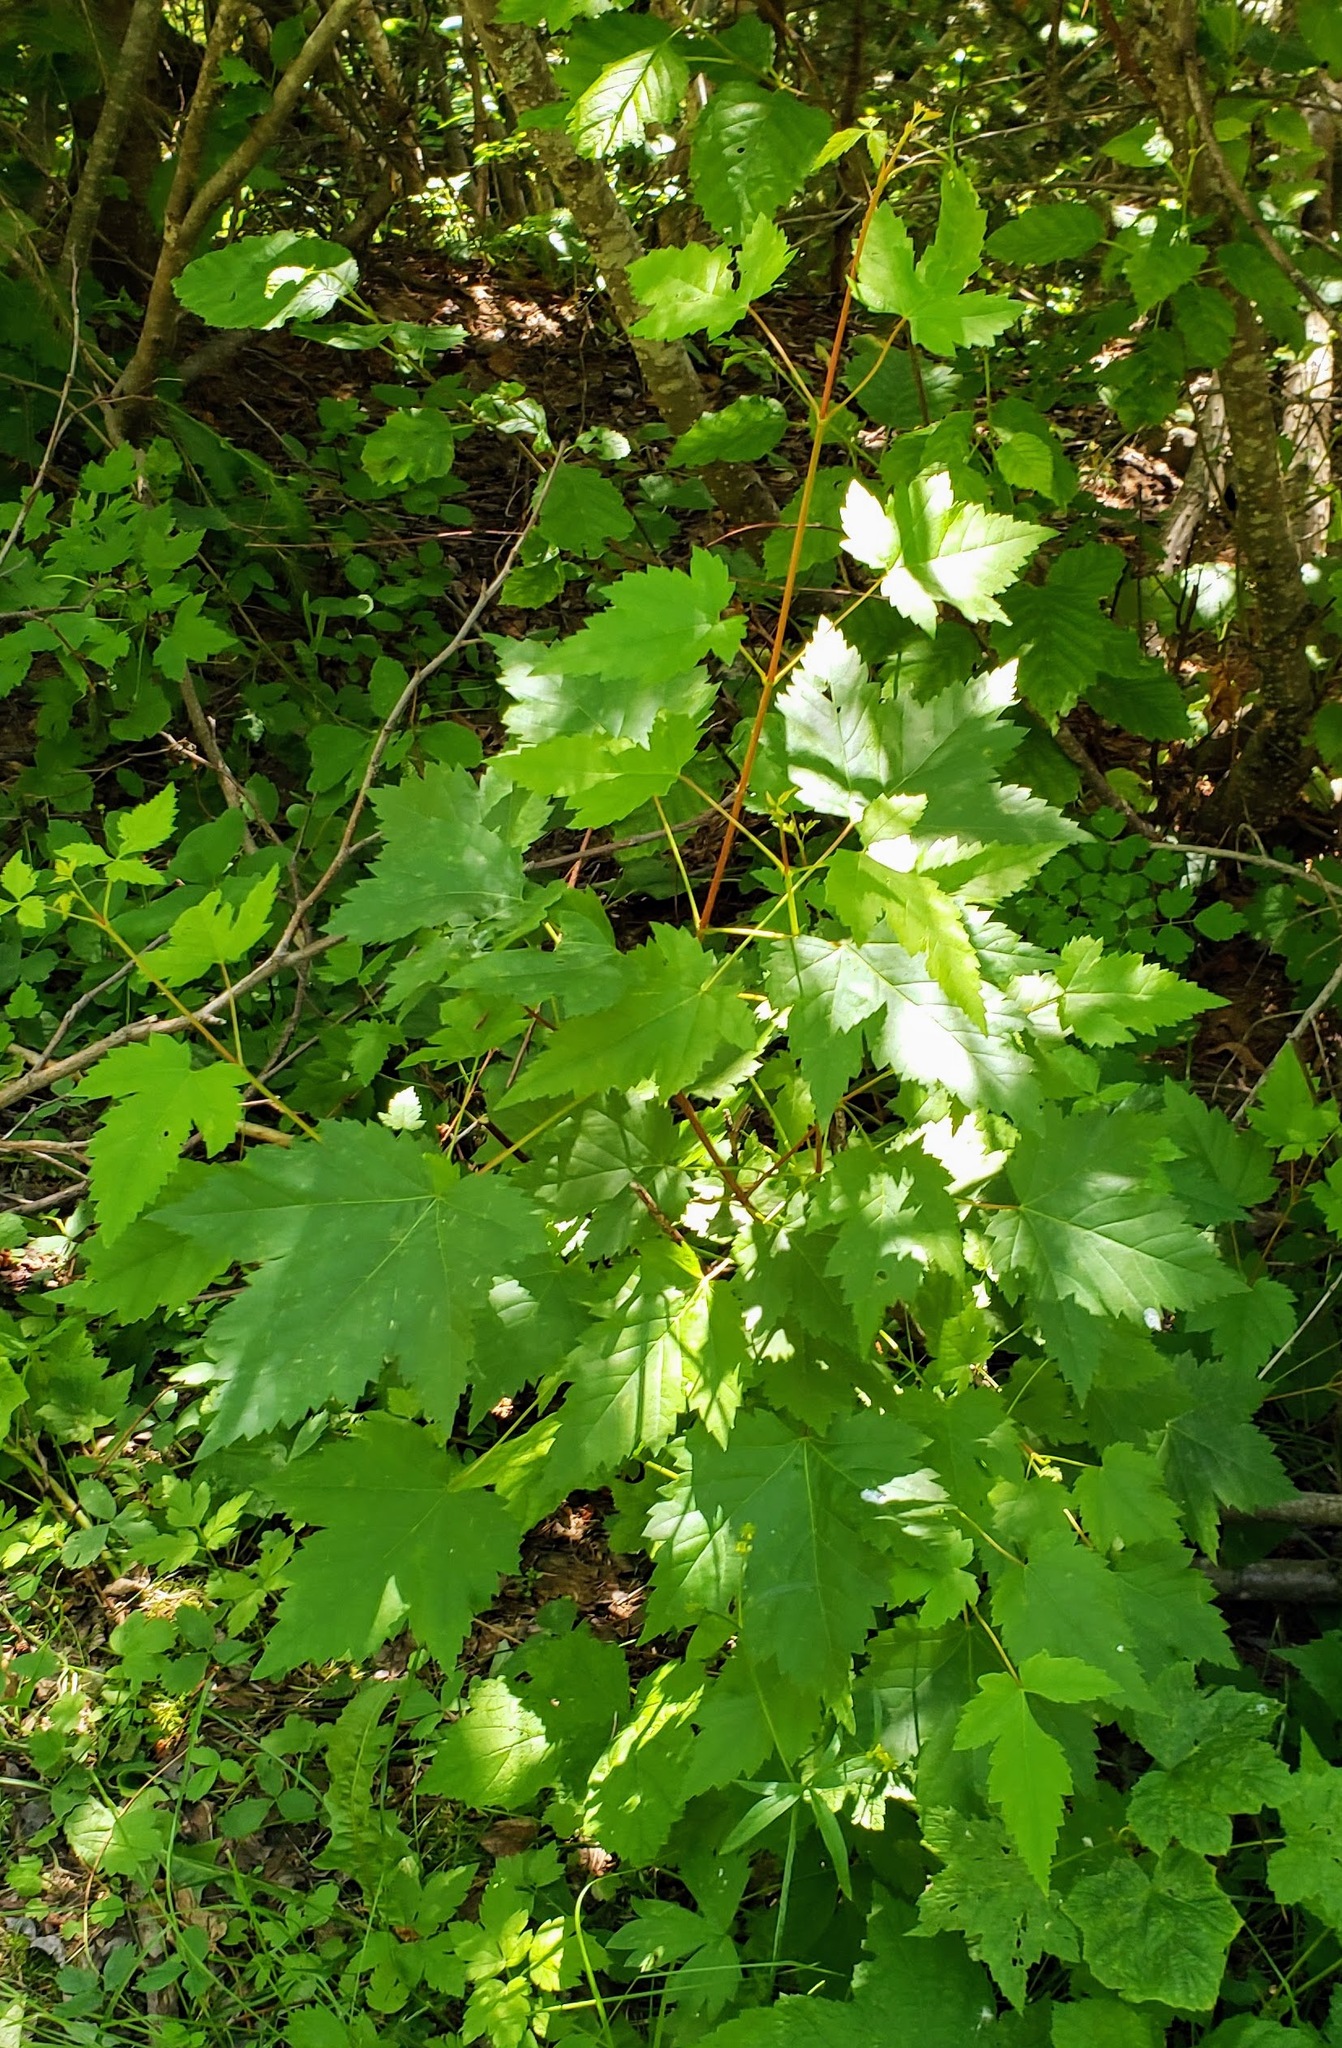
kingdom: Plantae
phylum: Tracheophyta
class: Magnoliopsida
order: Sapindales
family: Sapindaceae
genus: Acer
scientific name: Acer glabrum
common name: Rocky mountain maple
